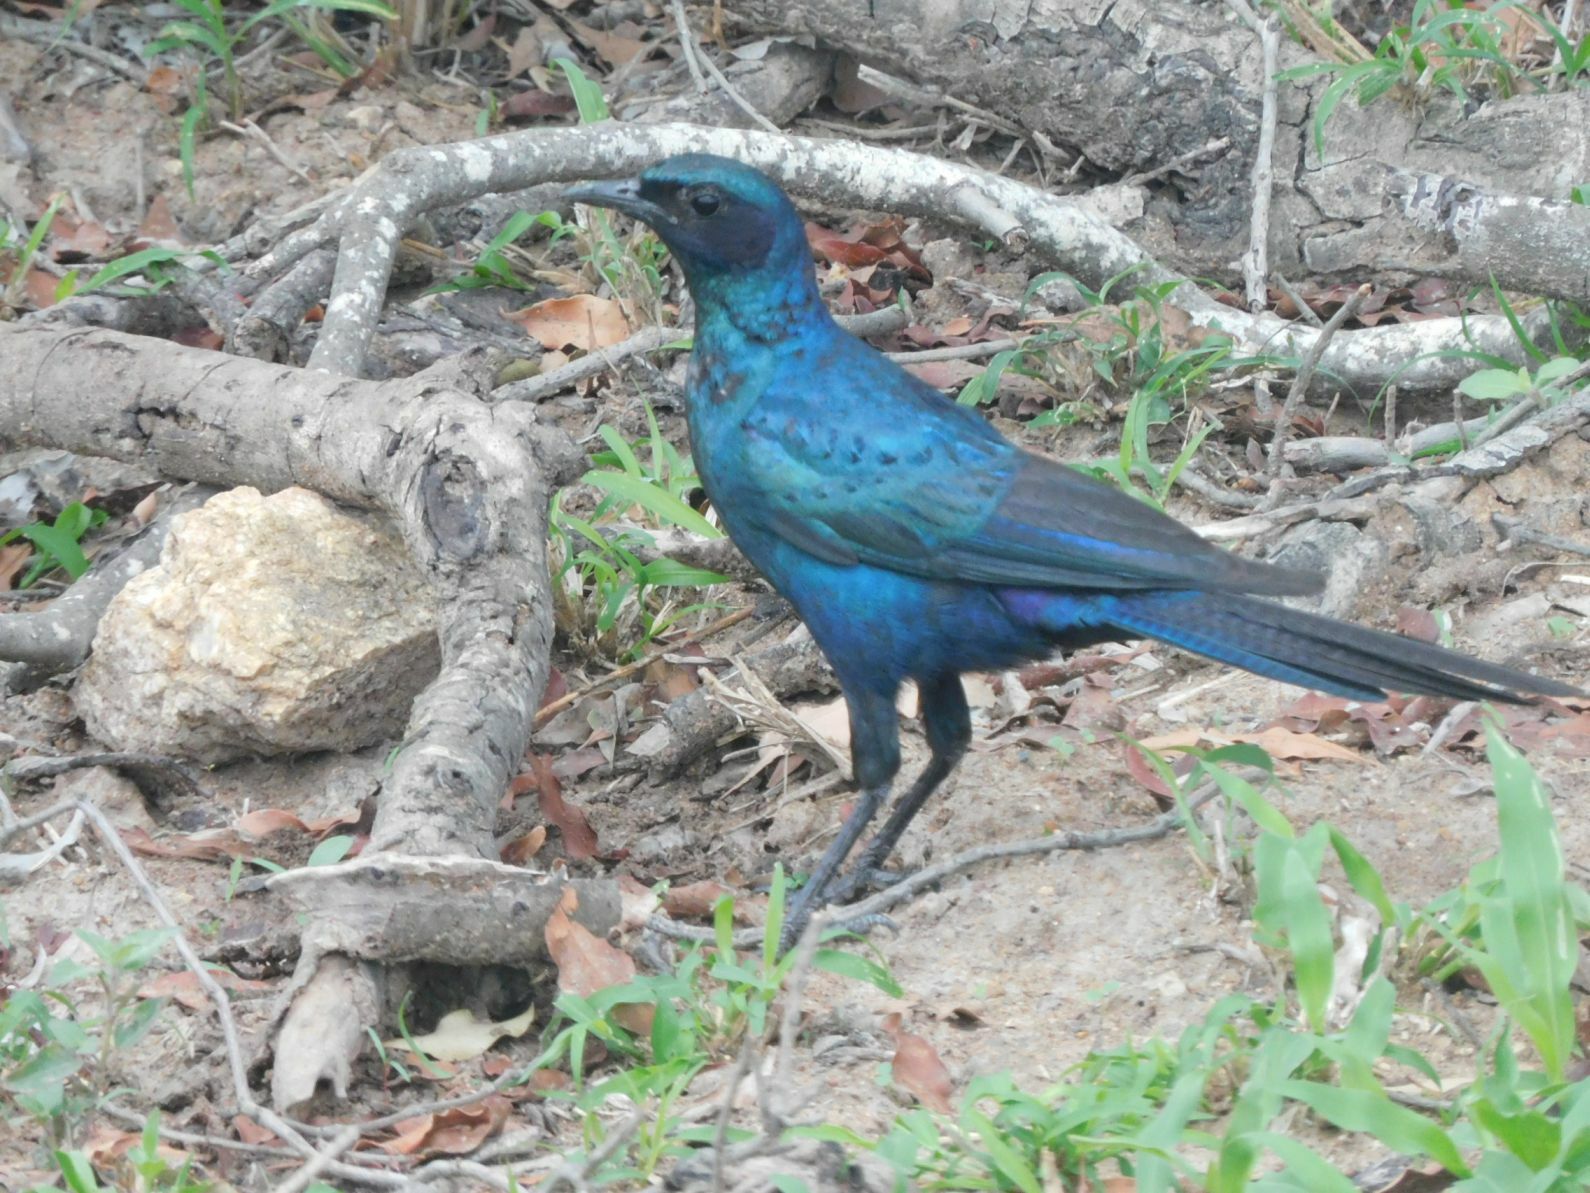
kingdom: Animalia
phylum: Chordata
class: Aves
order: Passeriformes
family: Sturnidae
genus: Lamprotornis
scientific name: Lamprotornis australis
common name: Burchell's starling
